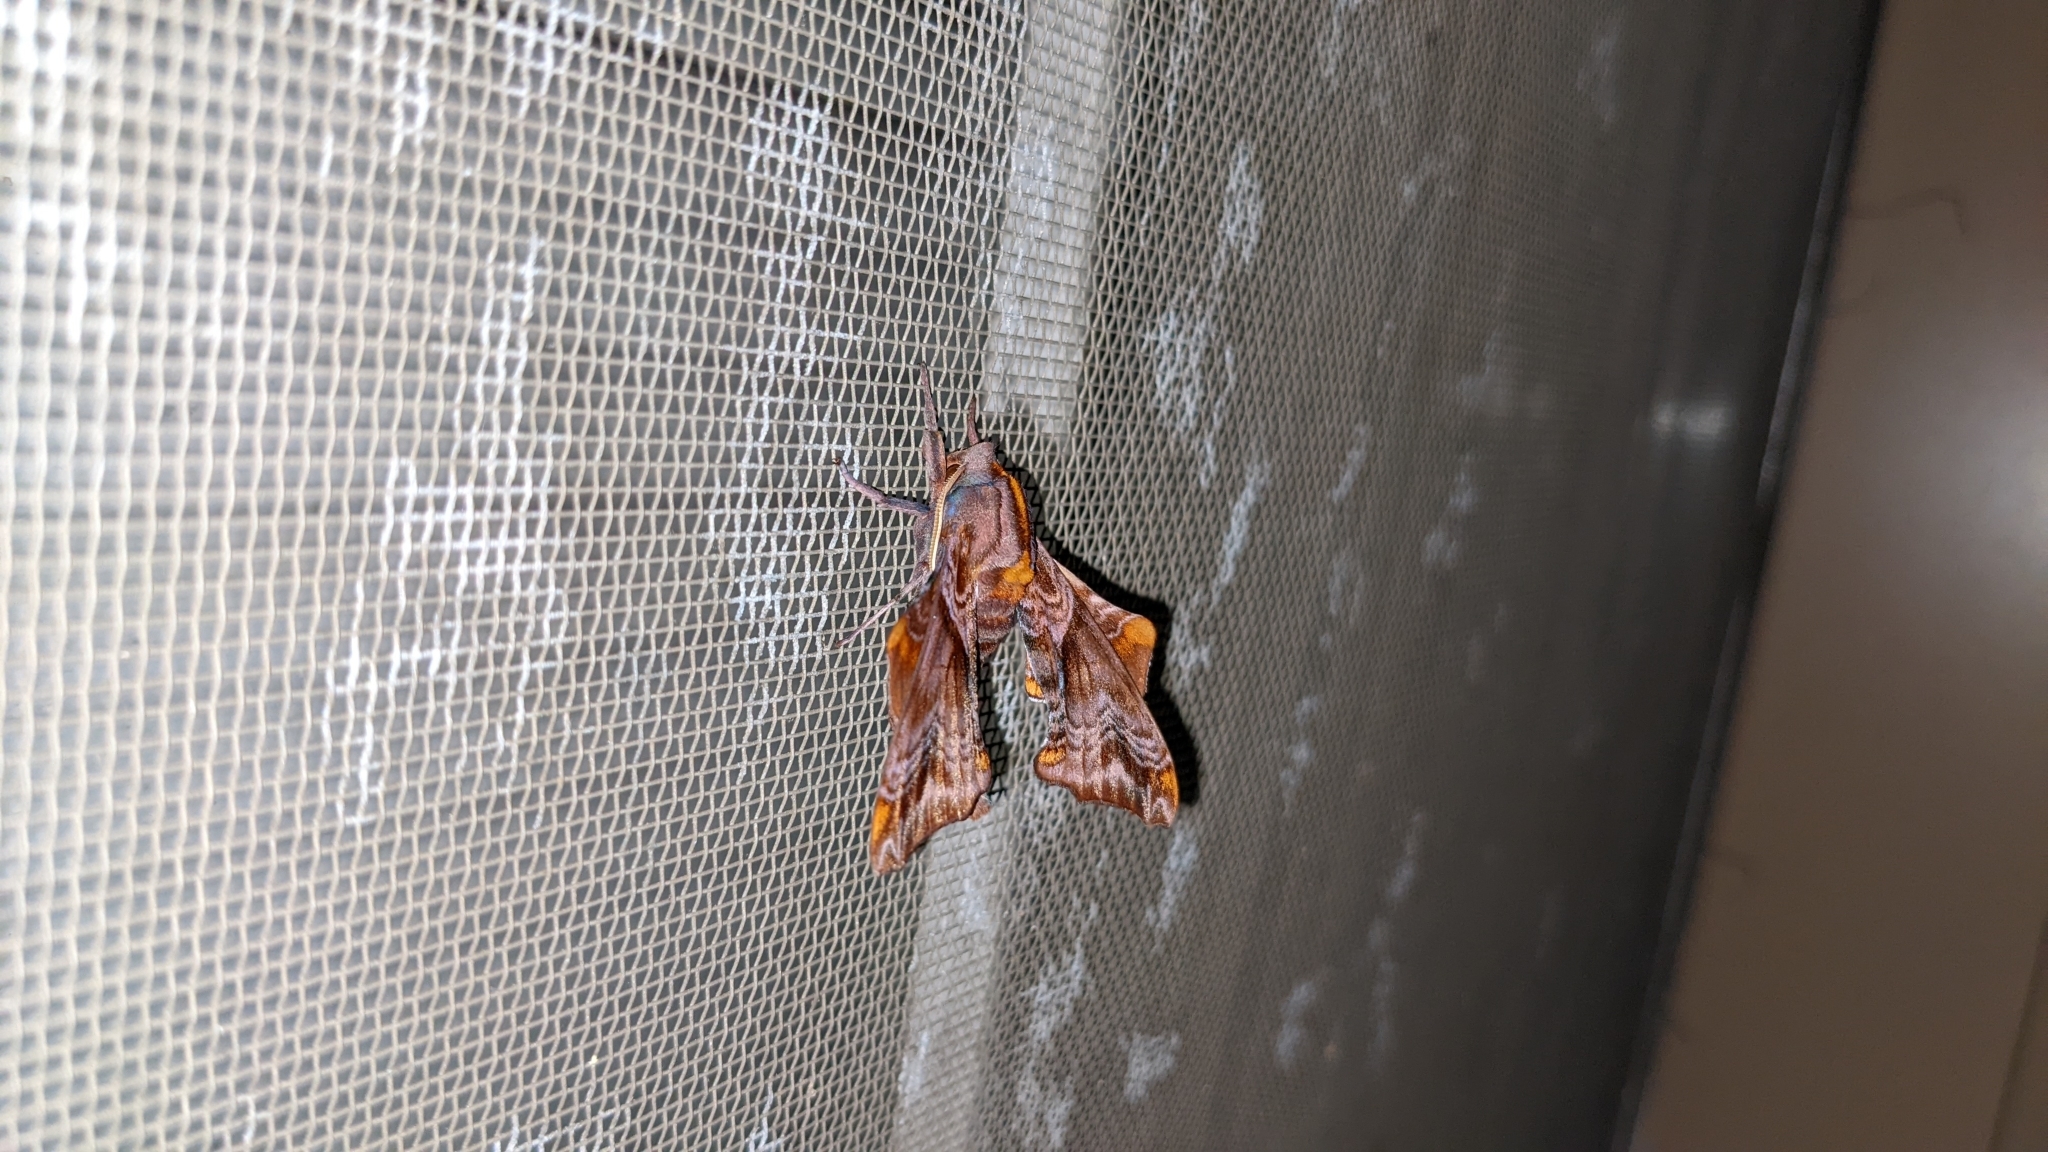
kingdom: Animalia
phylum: Arthropoda
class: Insecta
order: Lepidoptera
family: Sphingidae
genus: Paonias
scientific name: Paonias myops
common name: Small-eyed sphinx
